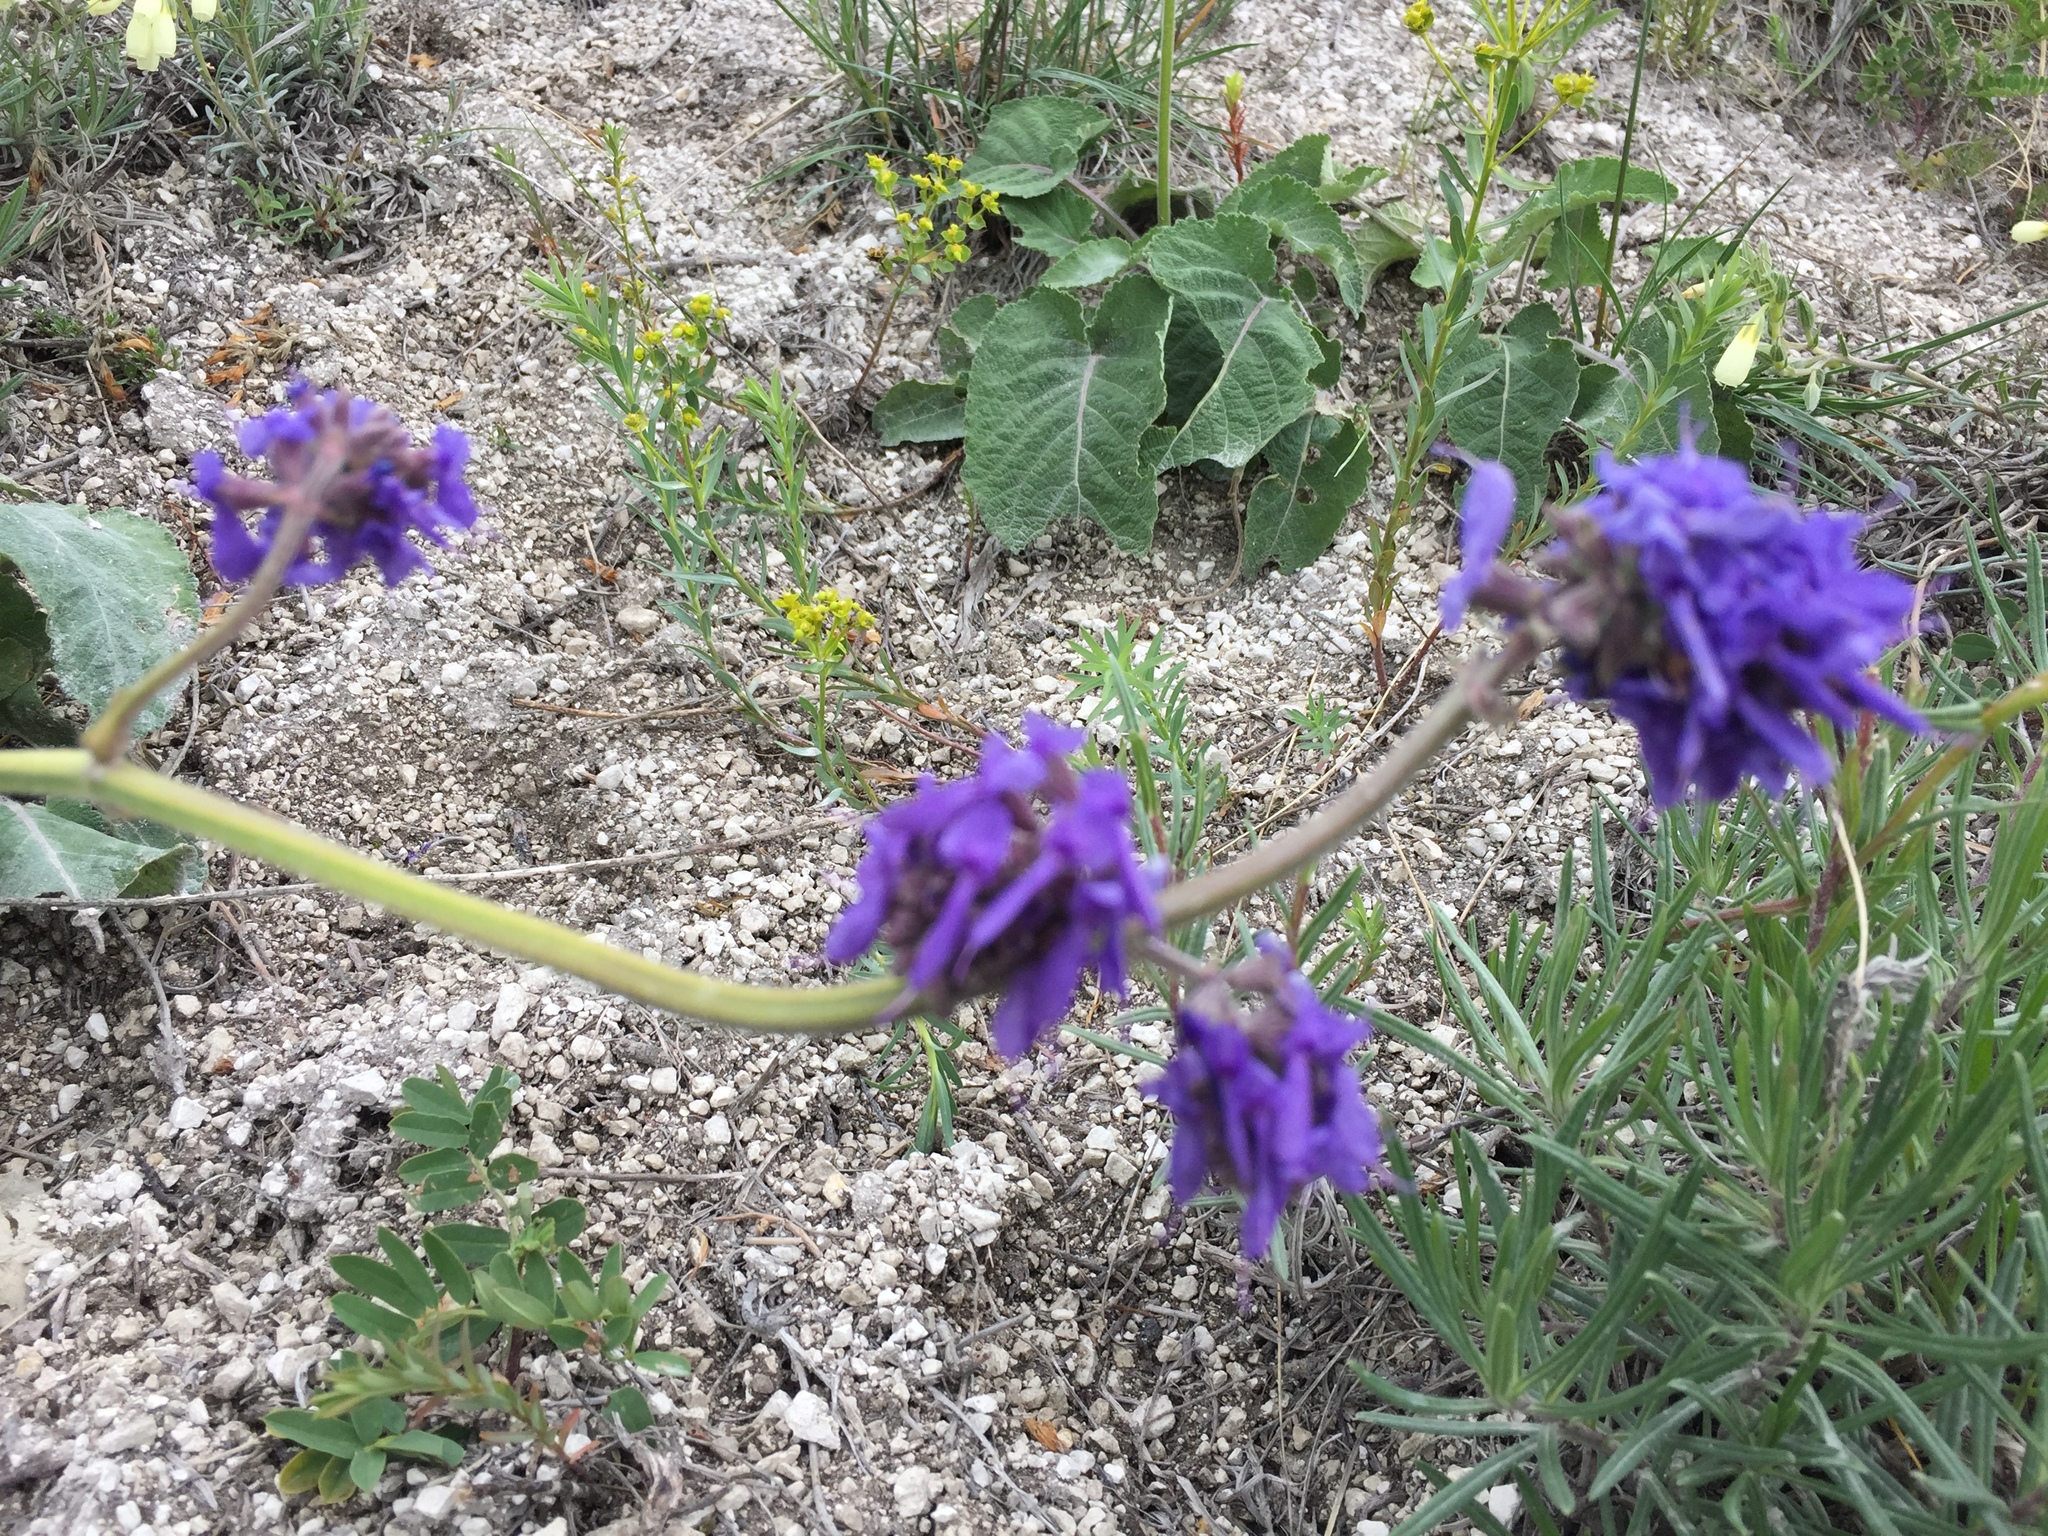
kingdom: Plantae
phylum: Tracheophyta
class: Magnoliopsida
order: Lamiales
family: Lamiaceae
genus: Salvia
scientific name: Salvia nutans
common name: Nodding sage
